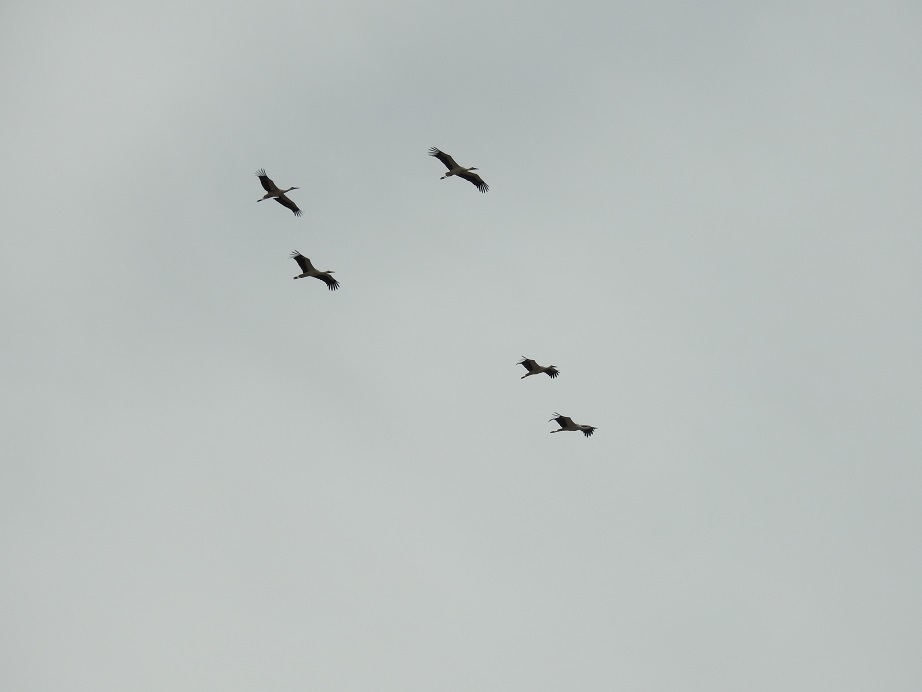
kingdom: Animalia
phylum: Chordata
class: Aves
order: Ciconiiformes
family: Ciconiidae
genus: Ciconia
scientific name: Ciconia ciconia
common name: White stork
